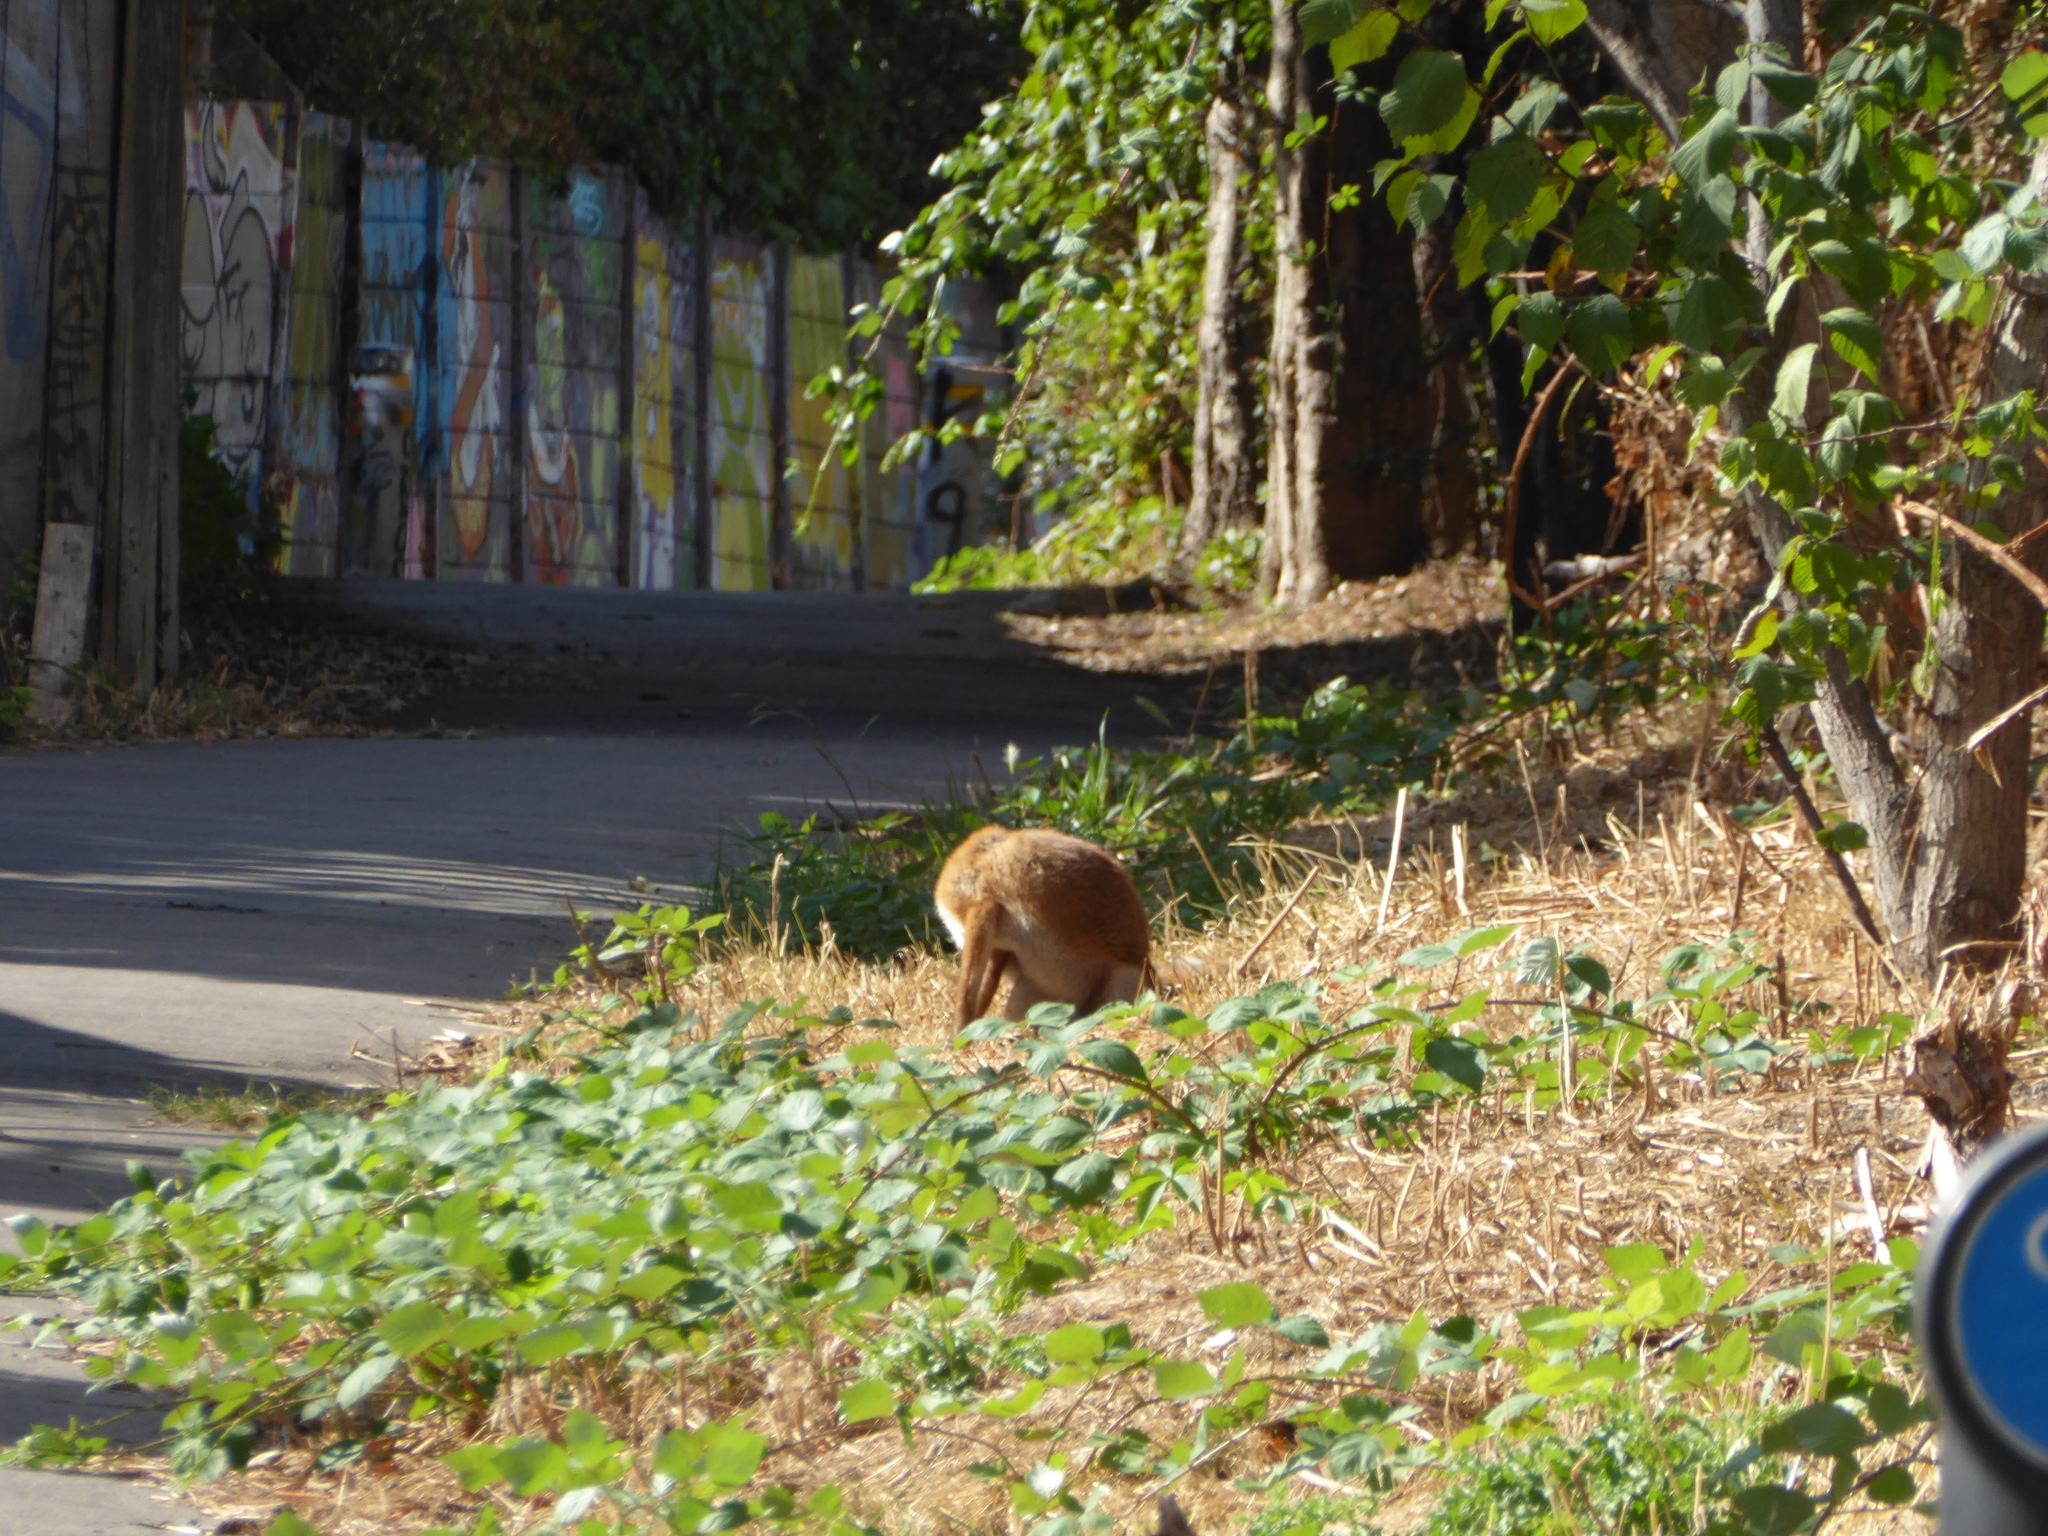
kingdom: Animalia
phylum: Chordata
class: Mammalia
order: Carnivora
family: Canidae
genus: Vulpes
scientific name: Vulpes vulpes
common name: Red fox
